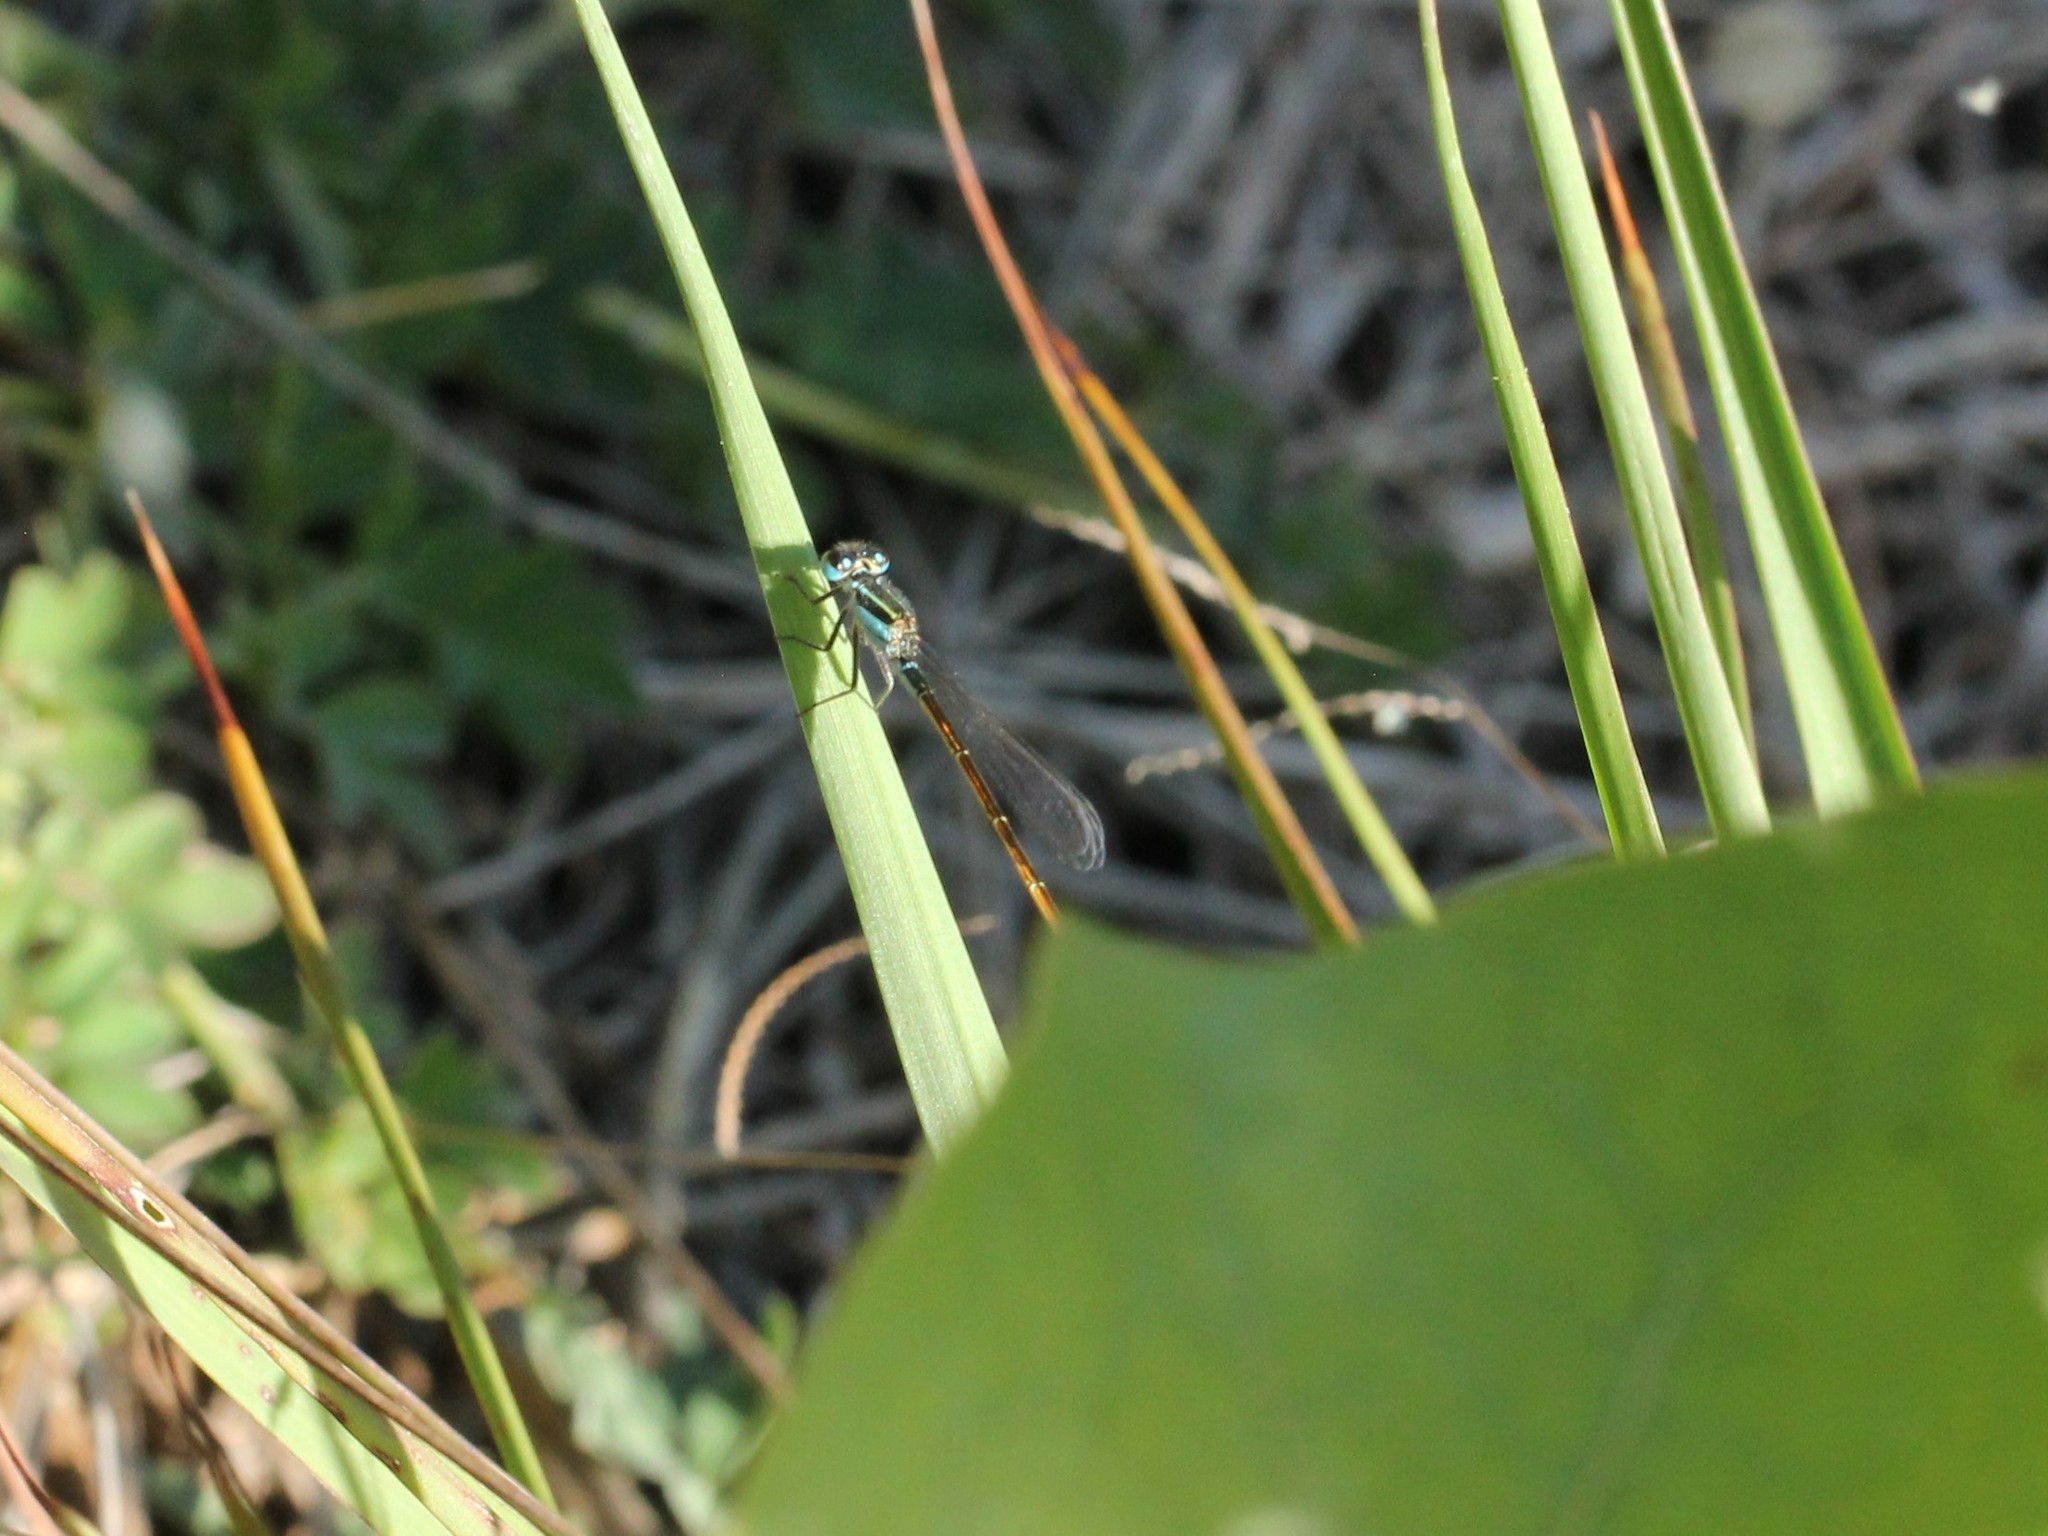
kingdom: Animalia
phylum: Arthropoda
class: Insecta
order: Odonata
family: Coenagrionidae
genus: Ischnura
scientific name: Ischnura ramburii
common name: Rambur's forktail
